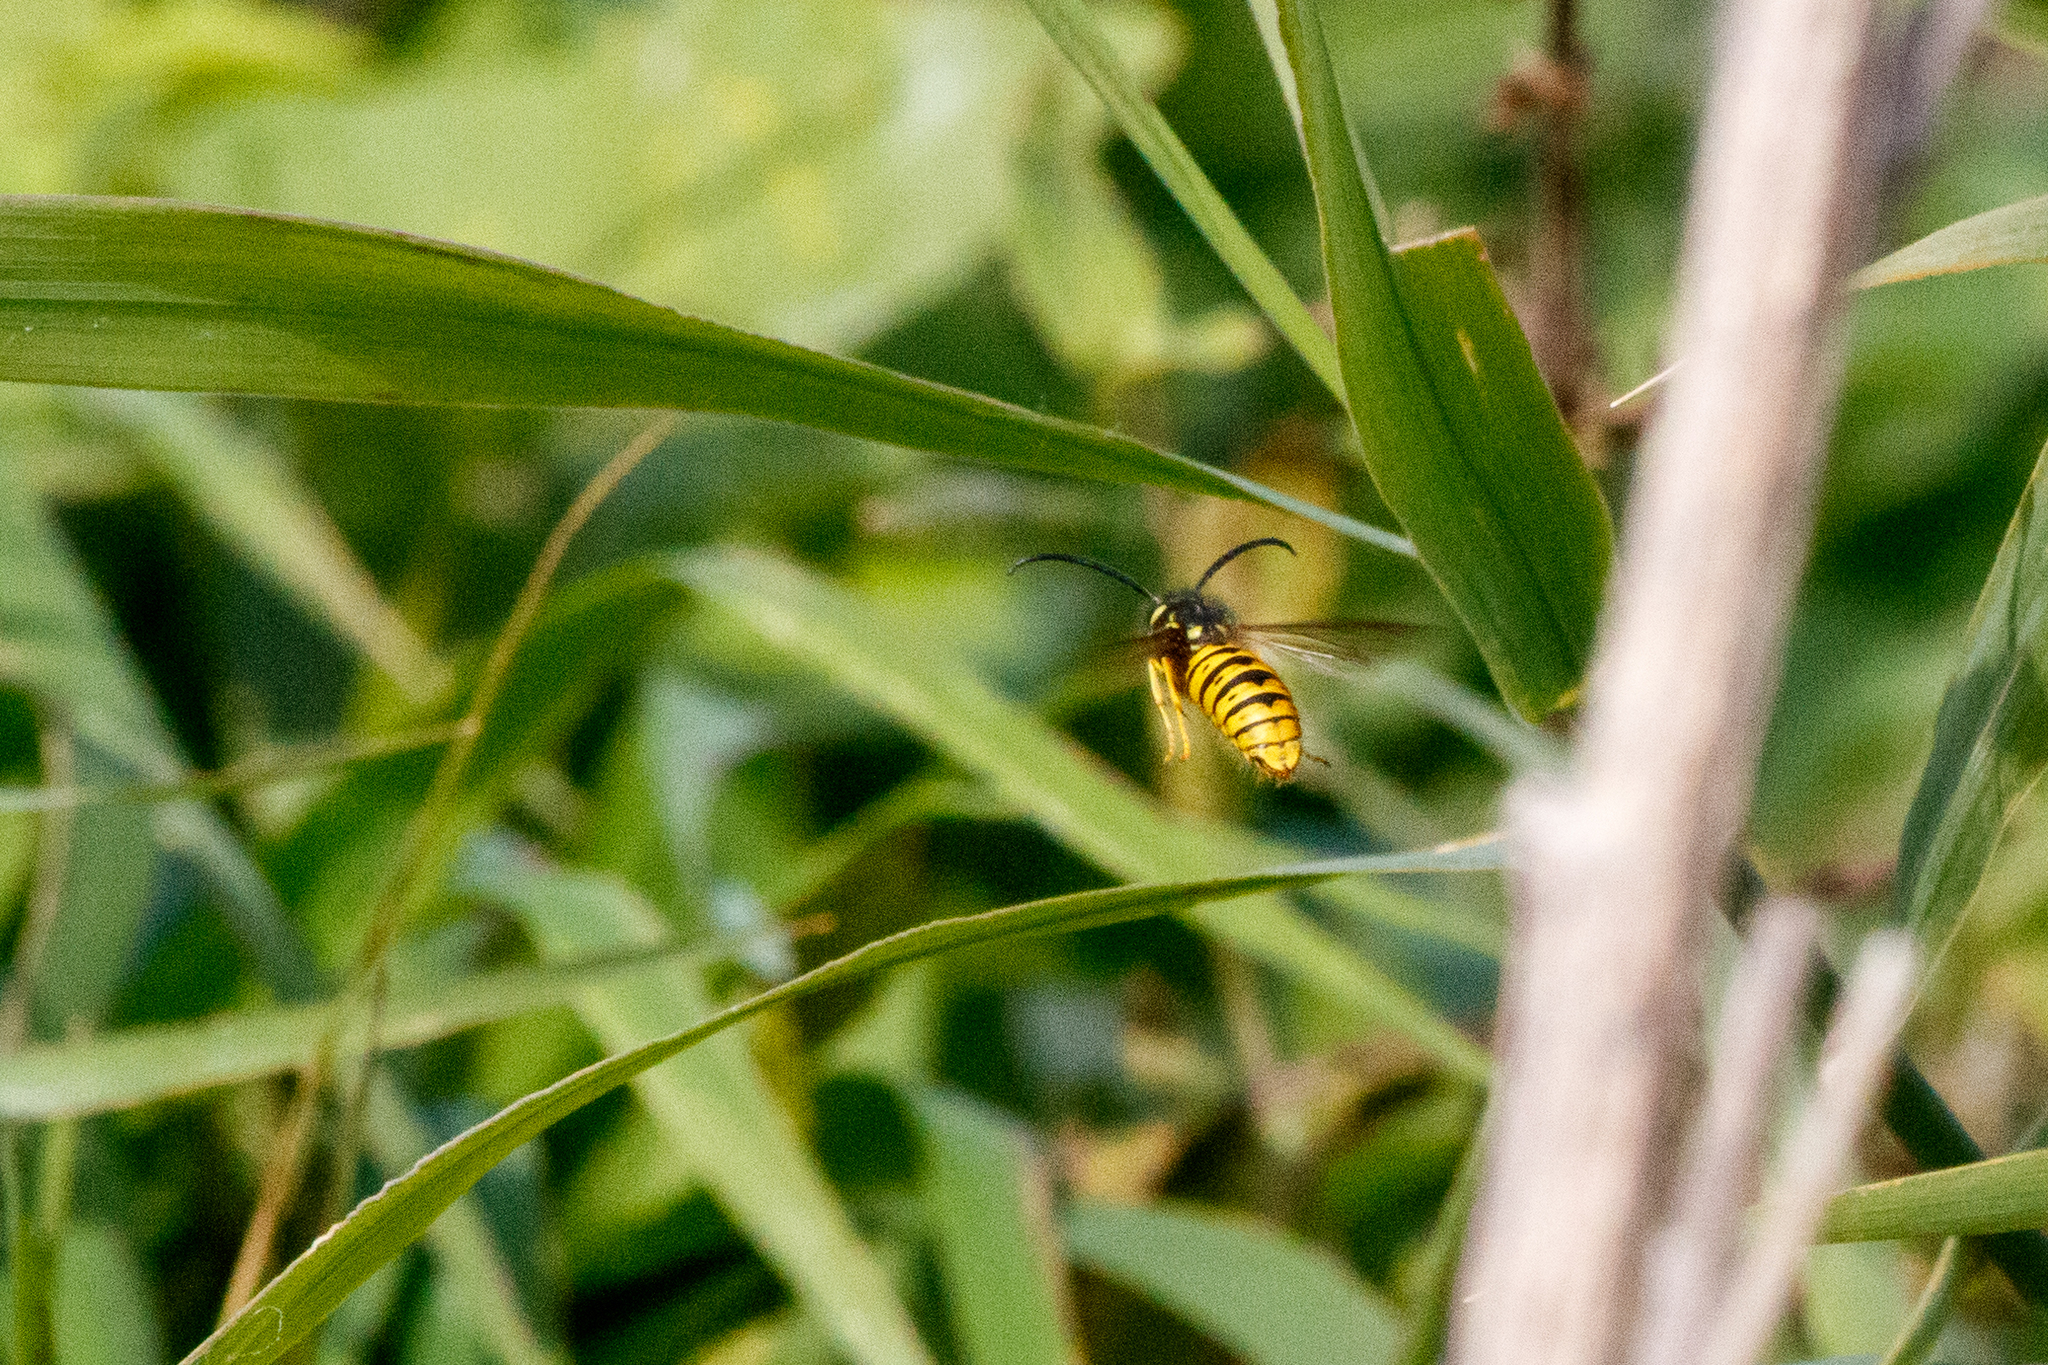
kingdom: Animalia
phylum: Arthropoda
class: Insecta
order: Hymenoptera
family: Vespidae
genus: Vespula
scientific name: Vespula germanica
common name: German wasp
